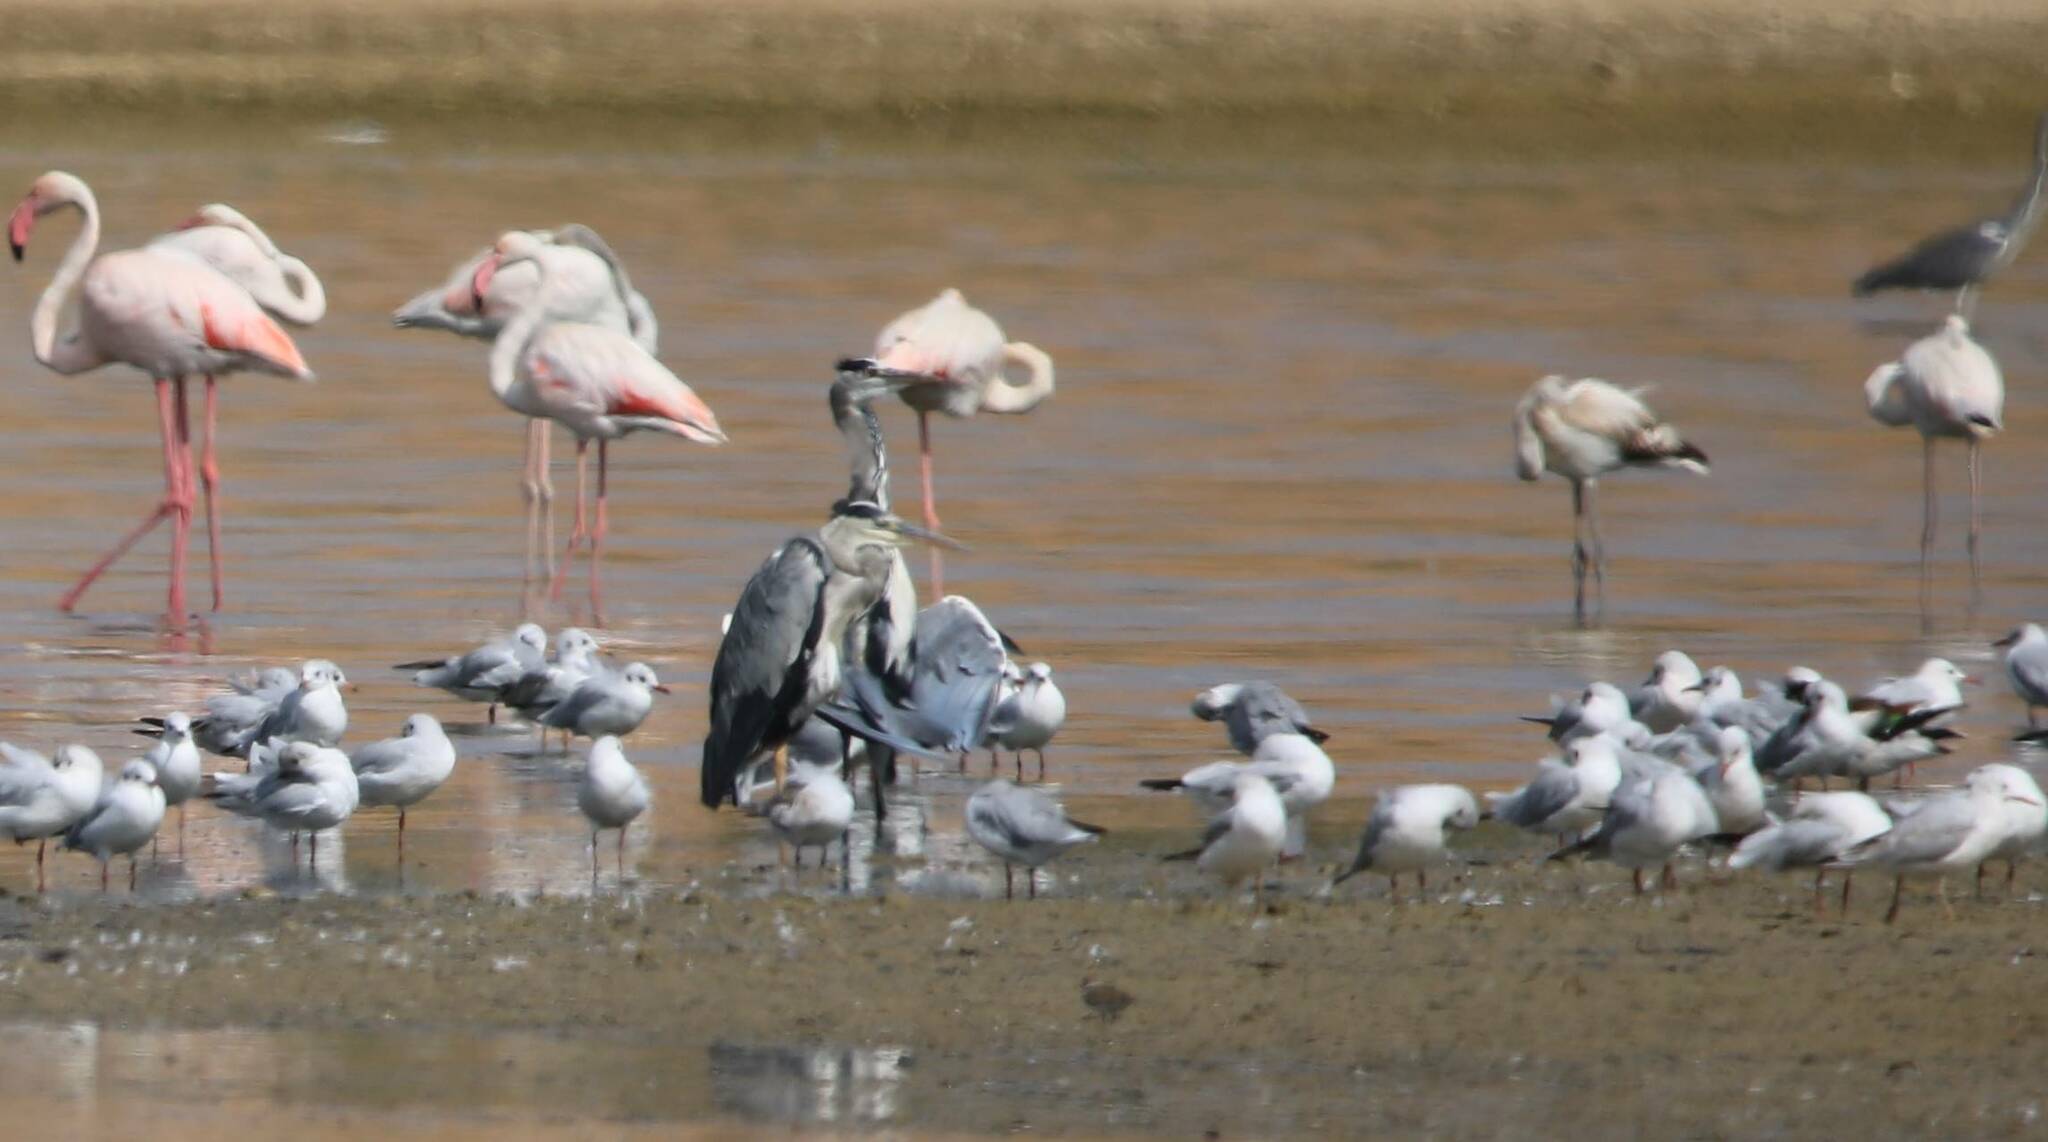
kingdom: Animalia
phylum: Chordata
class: Aves
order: Pelecaniformes
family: Ardeidae
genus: Ardea
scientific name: Ardea cinerea
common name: Grey heron
